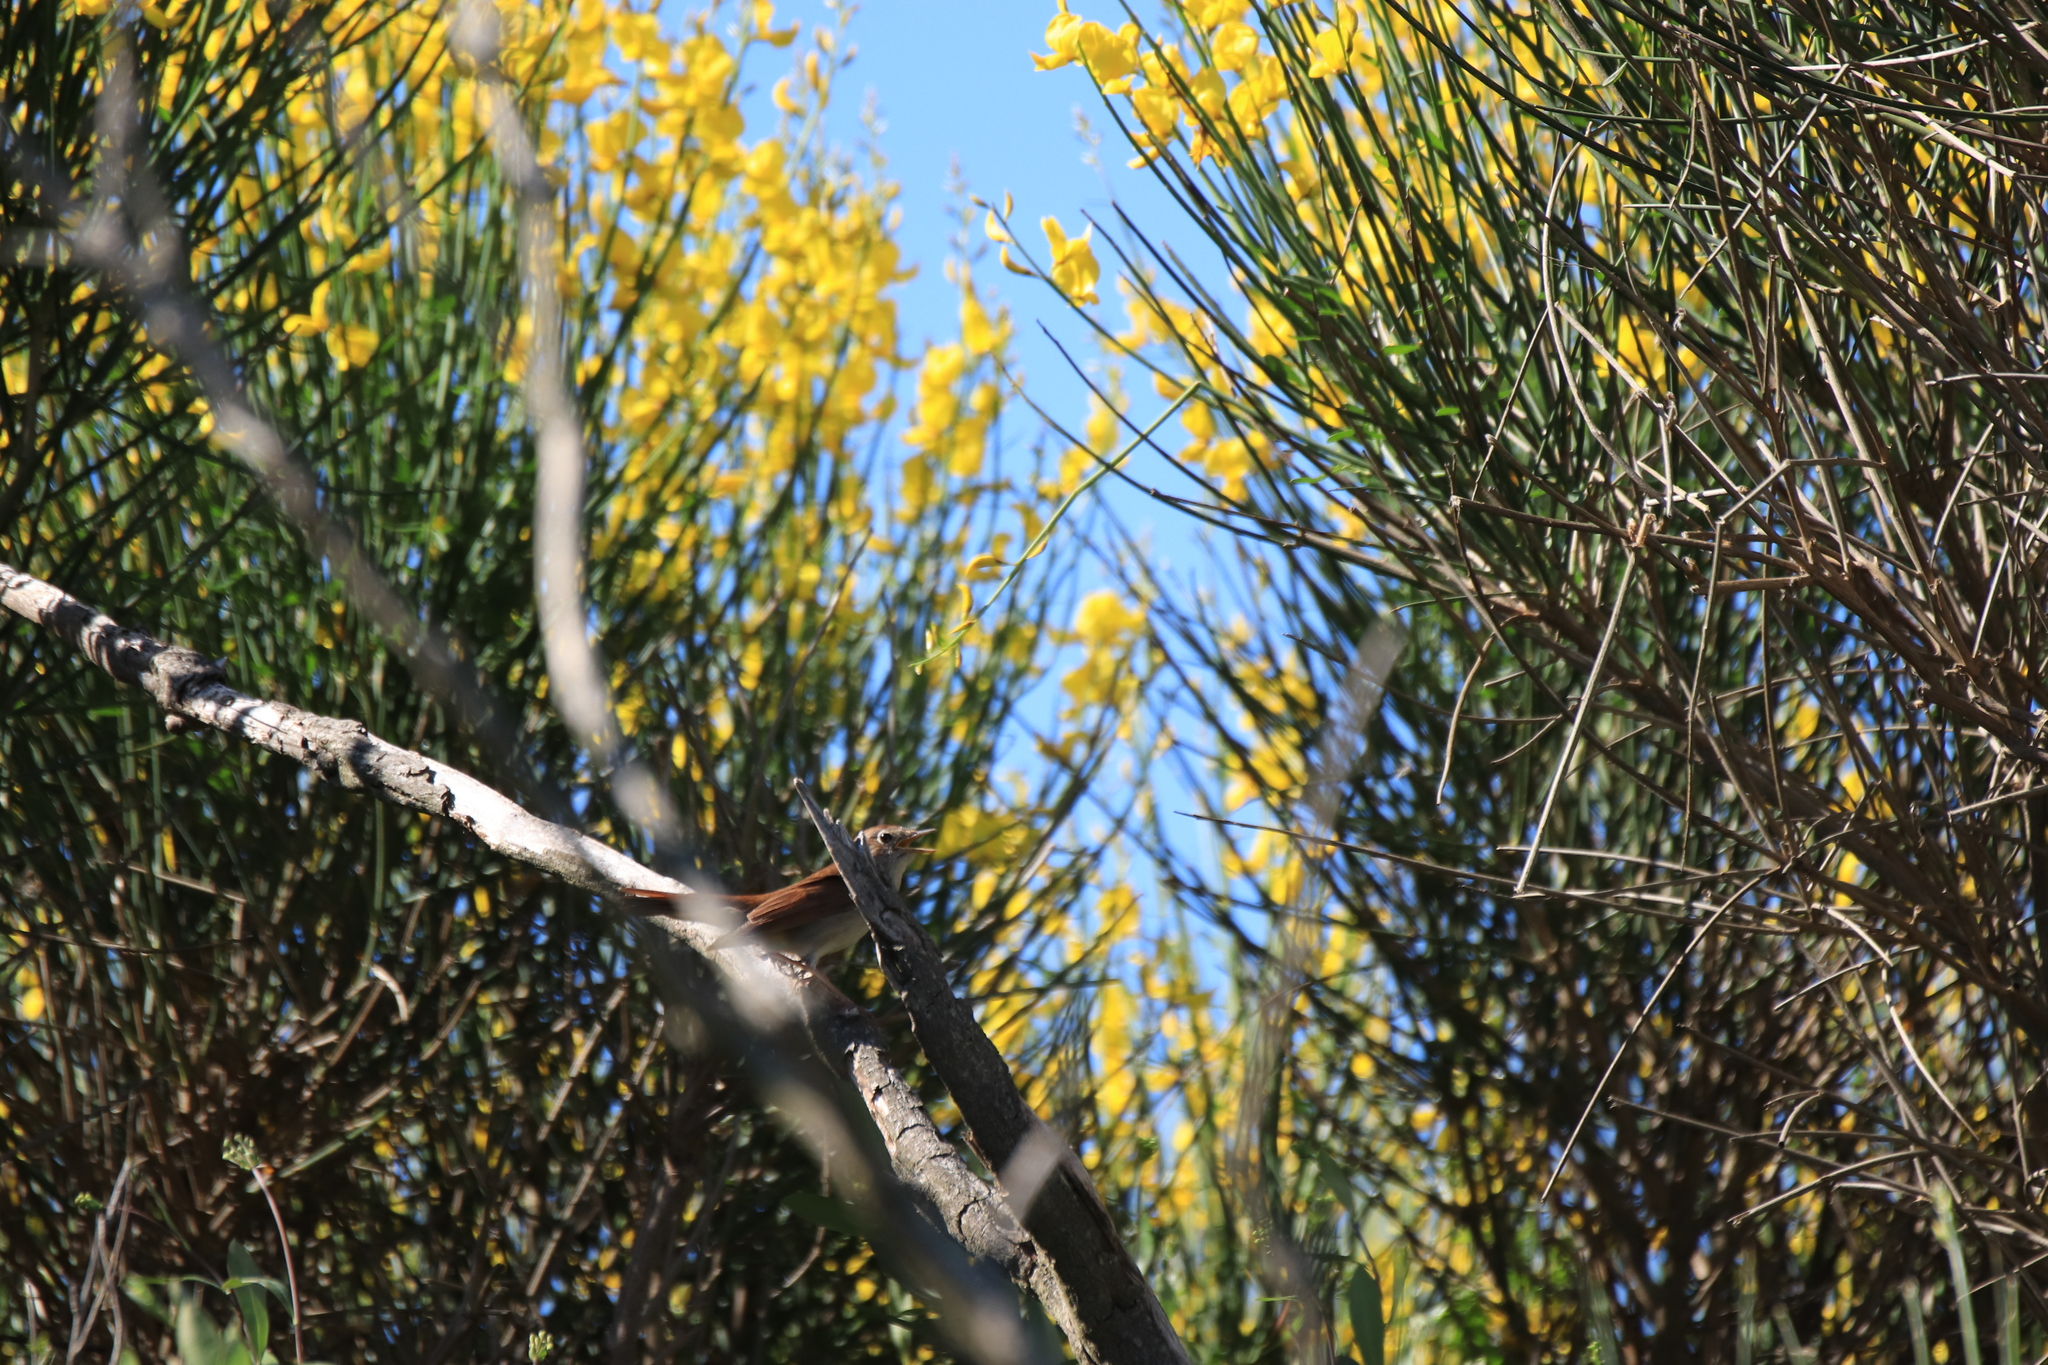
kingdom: Animalia
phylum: Chordata
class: Aves
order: Passeriformes
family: Muscicapidae
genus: Luscinia
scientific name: Luscinia megarhynchos
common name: Common nightingale
